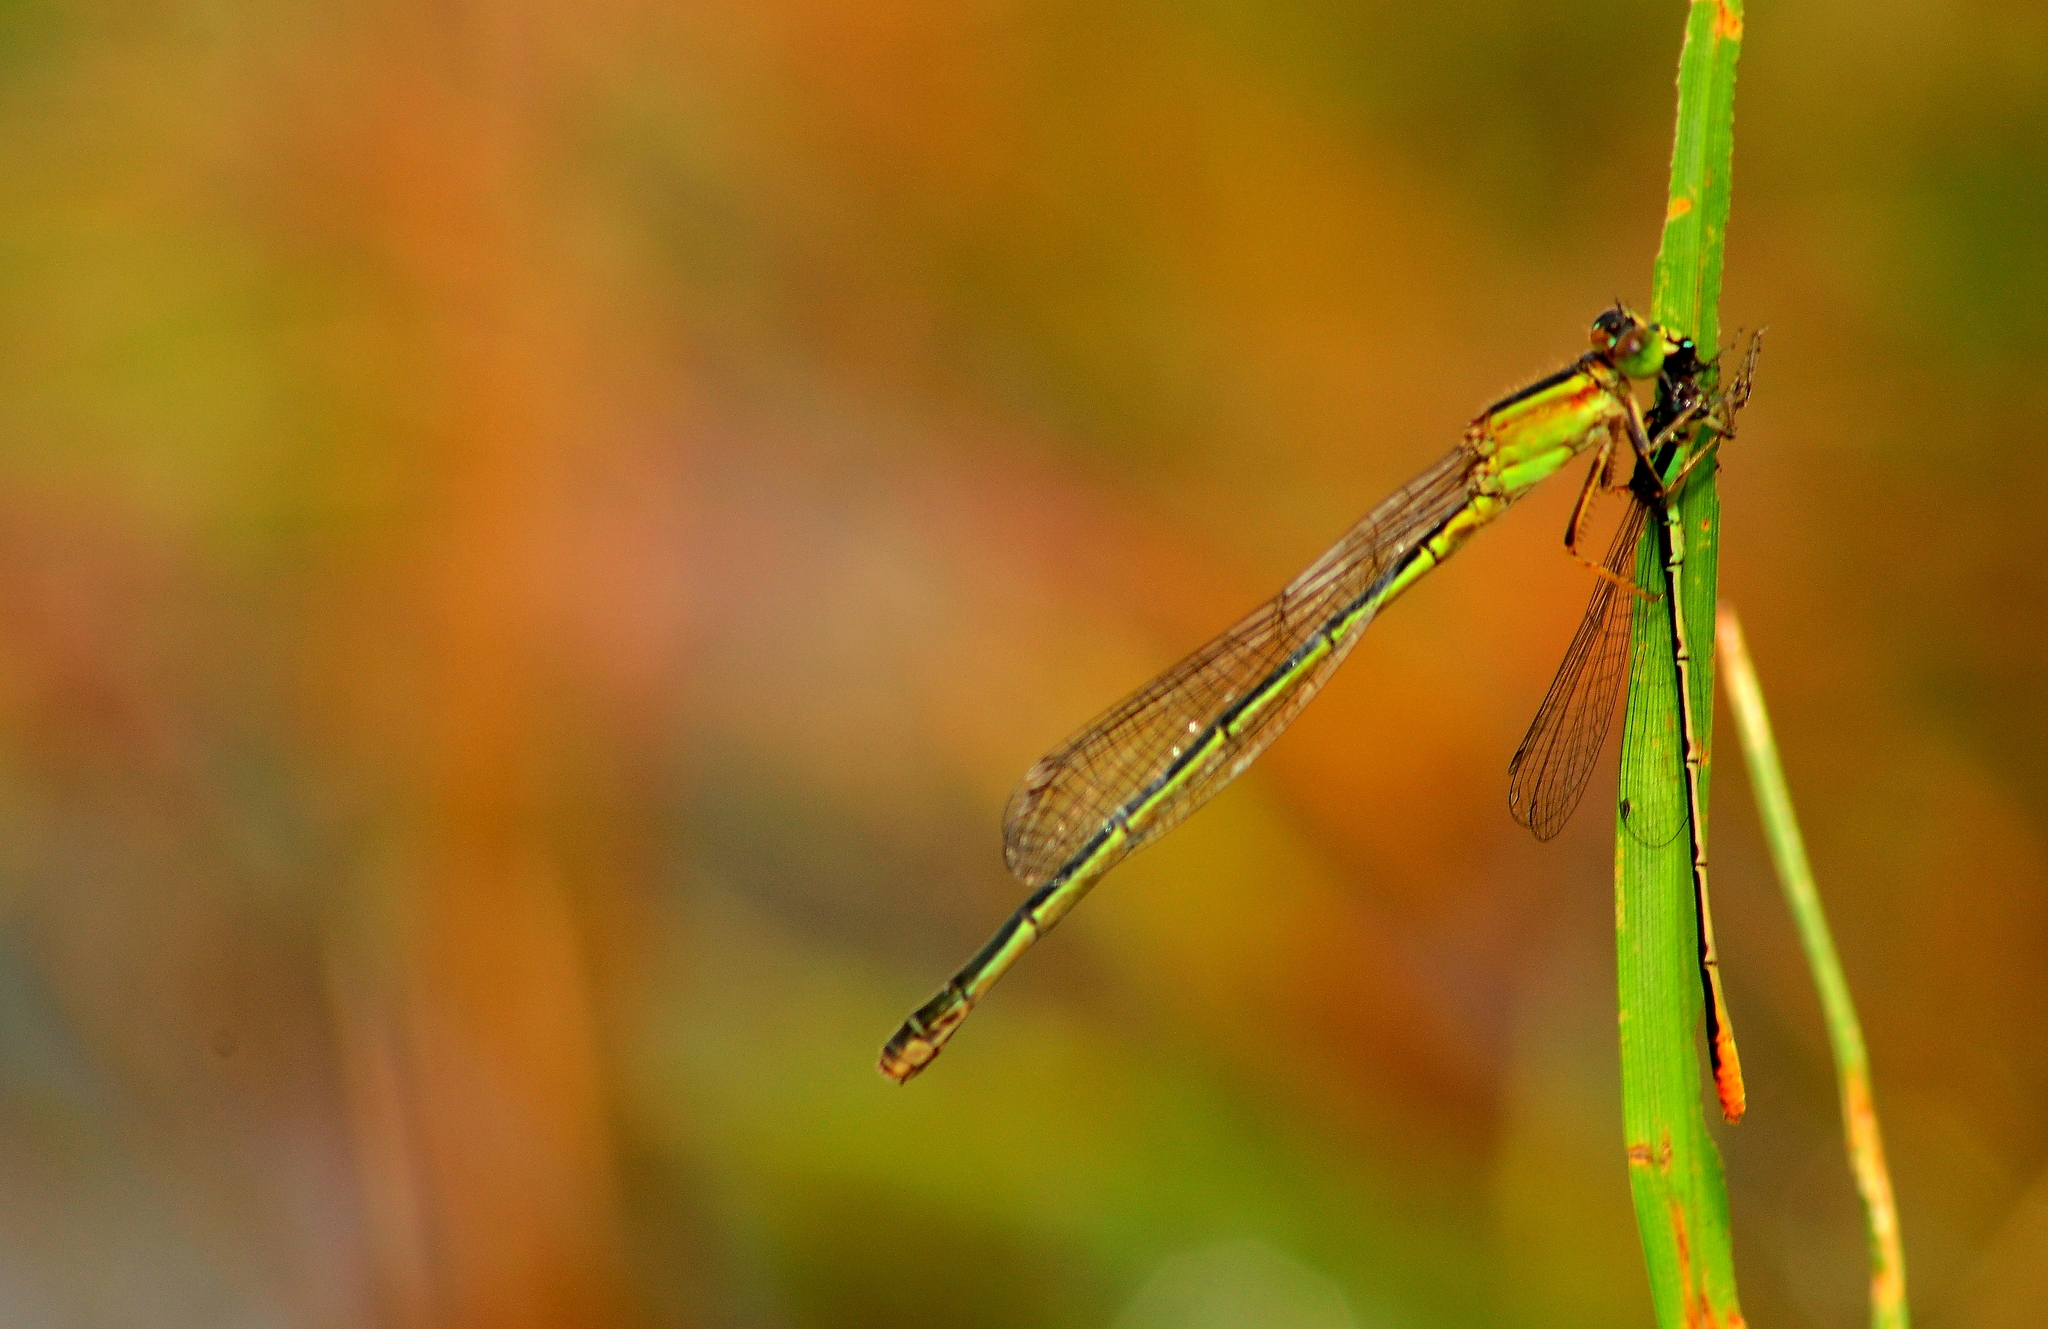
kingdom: Animalia
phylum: Arthropoda
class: Insecta
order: Odonata
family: Coenagrionidae
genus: Ischnura
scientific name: Ischnura senegalensis
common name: Tropical bluetail
